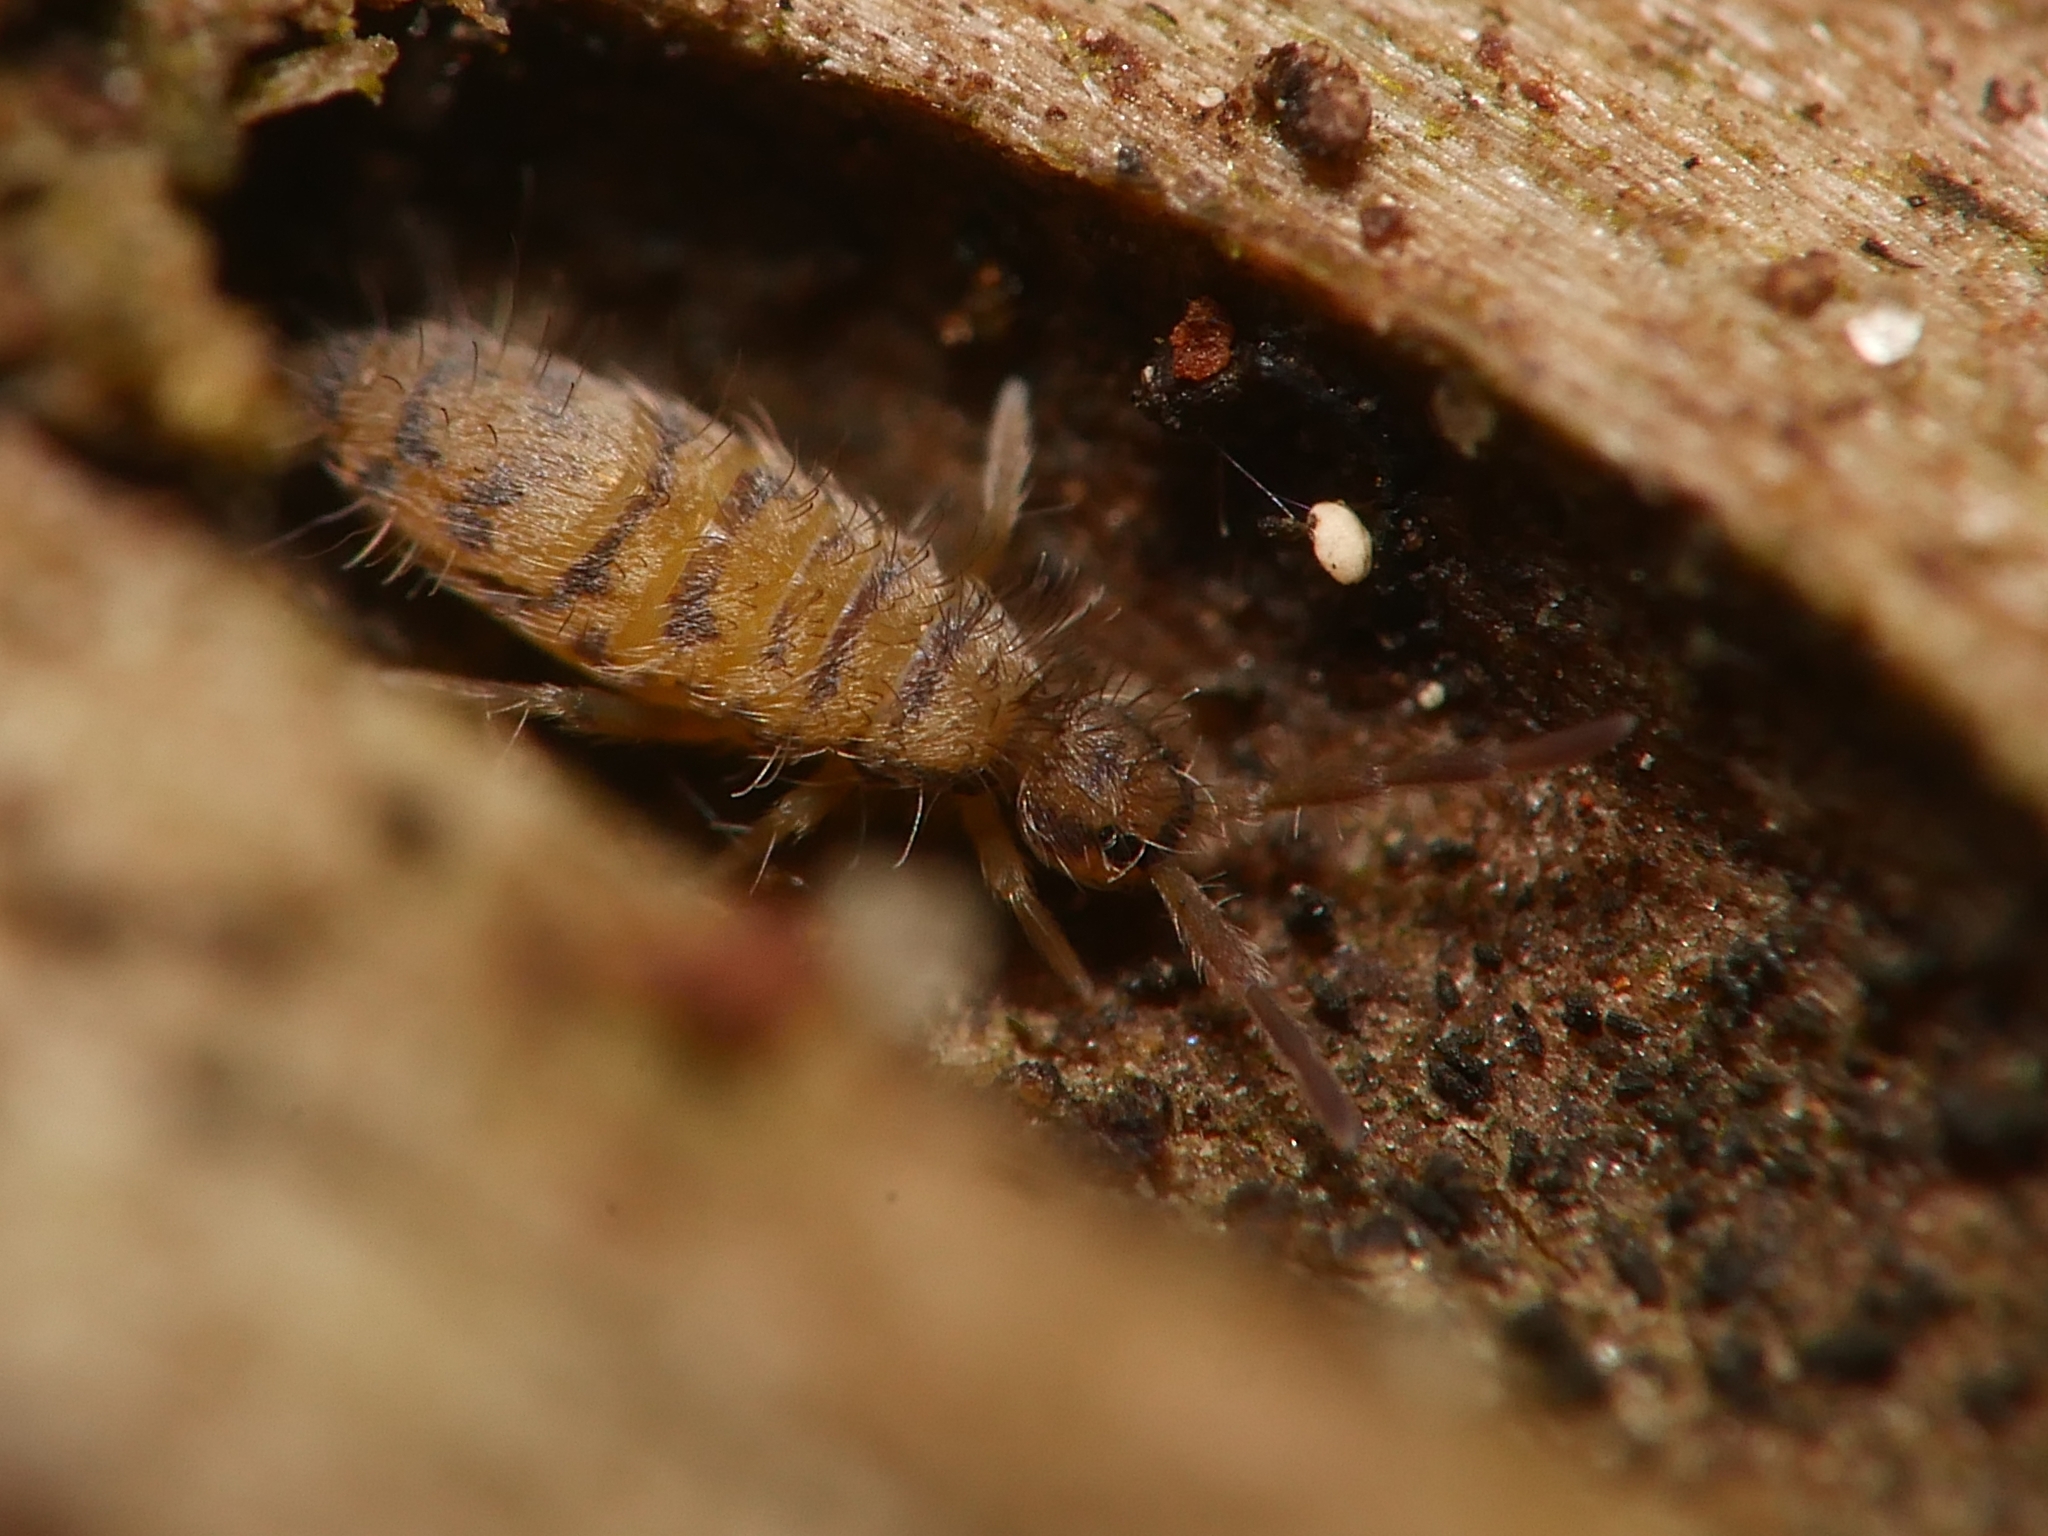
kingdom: Animalia
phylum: Arthropoda
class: Collembola
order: Entomobryomorpha
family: Entomobryidae
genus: Entomobrya
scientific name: Entomobrya multifasciata
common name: Springtail
